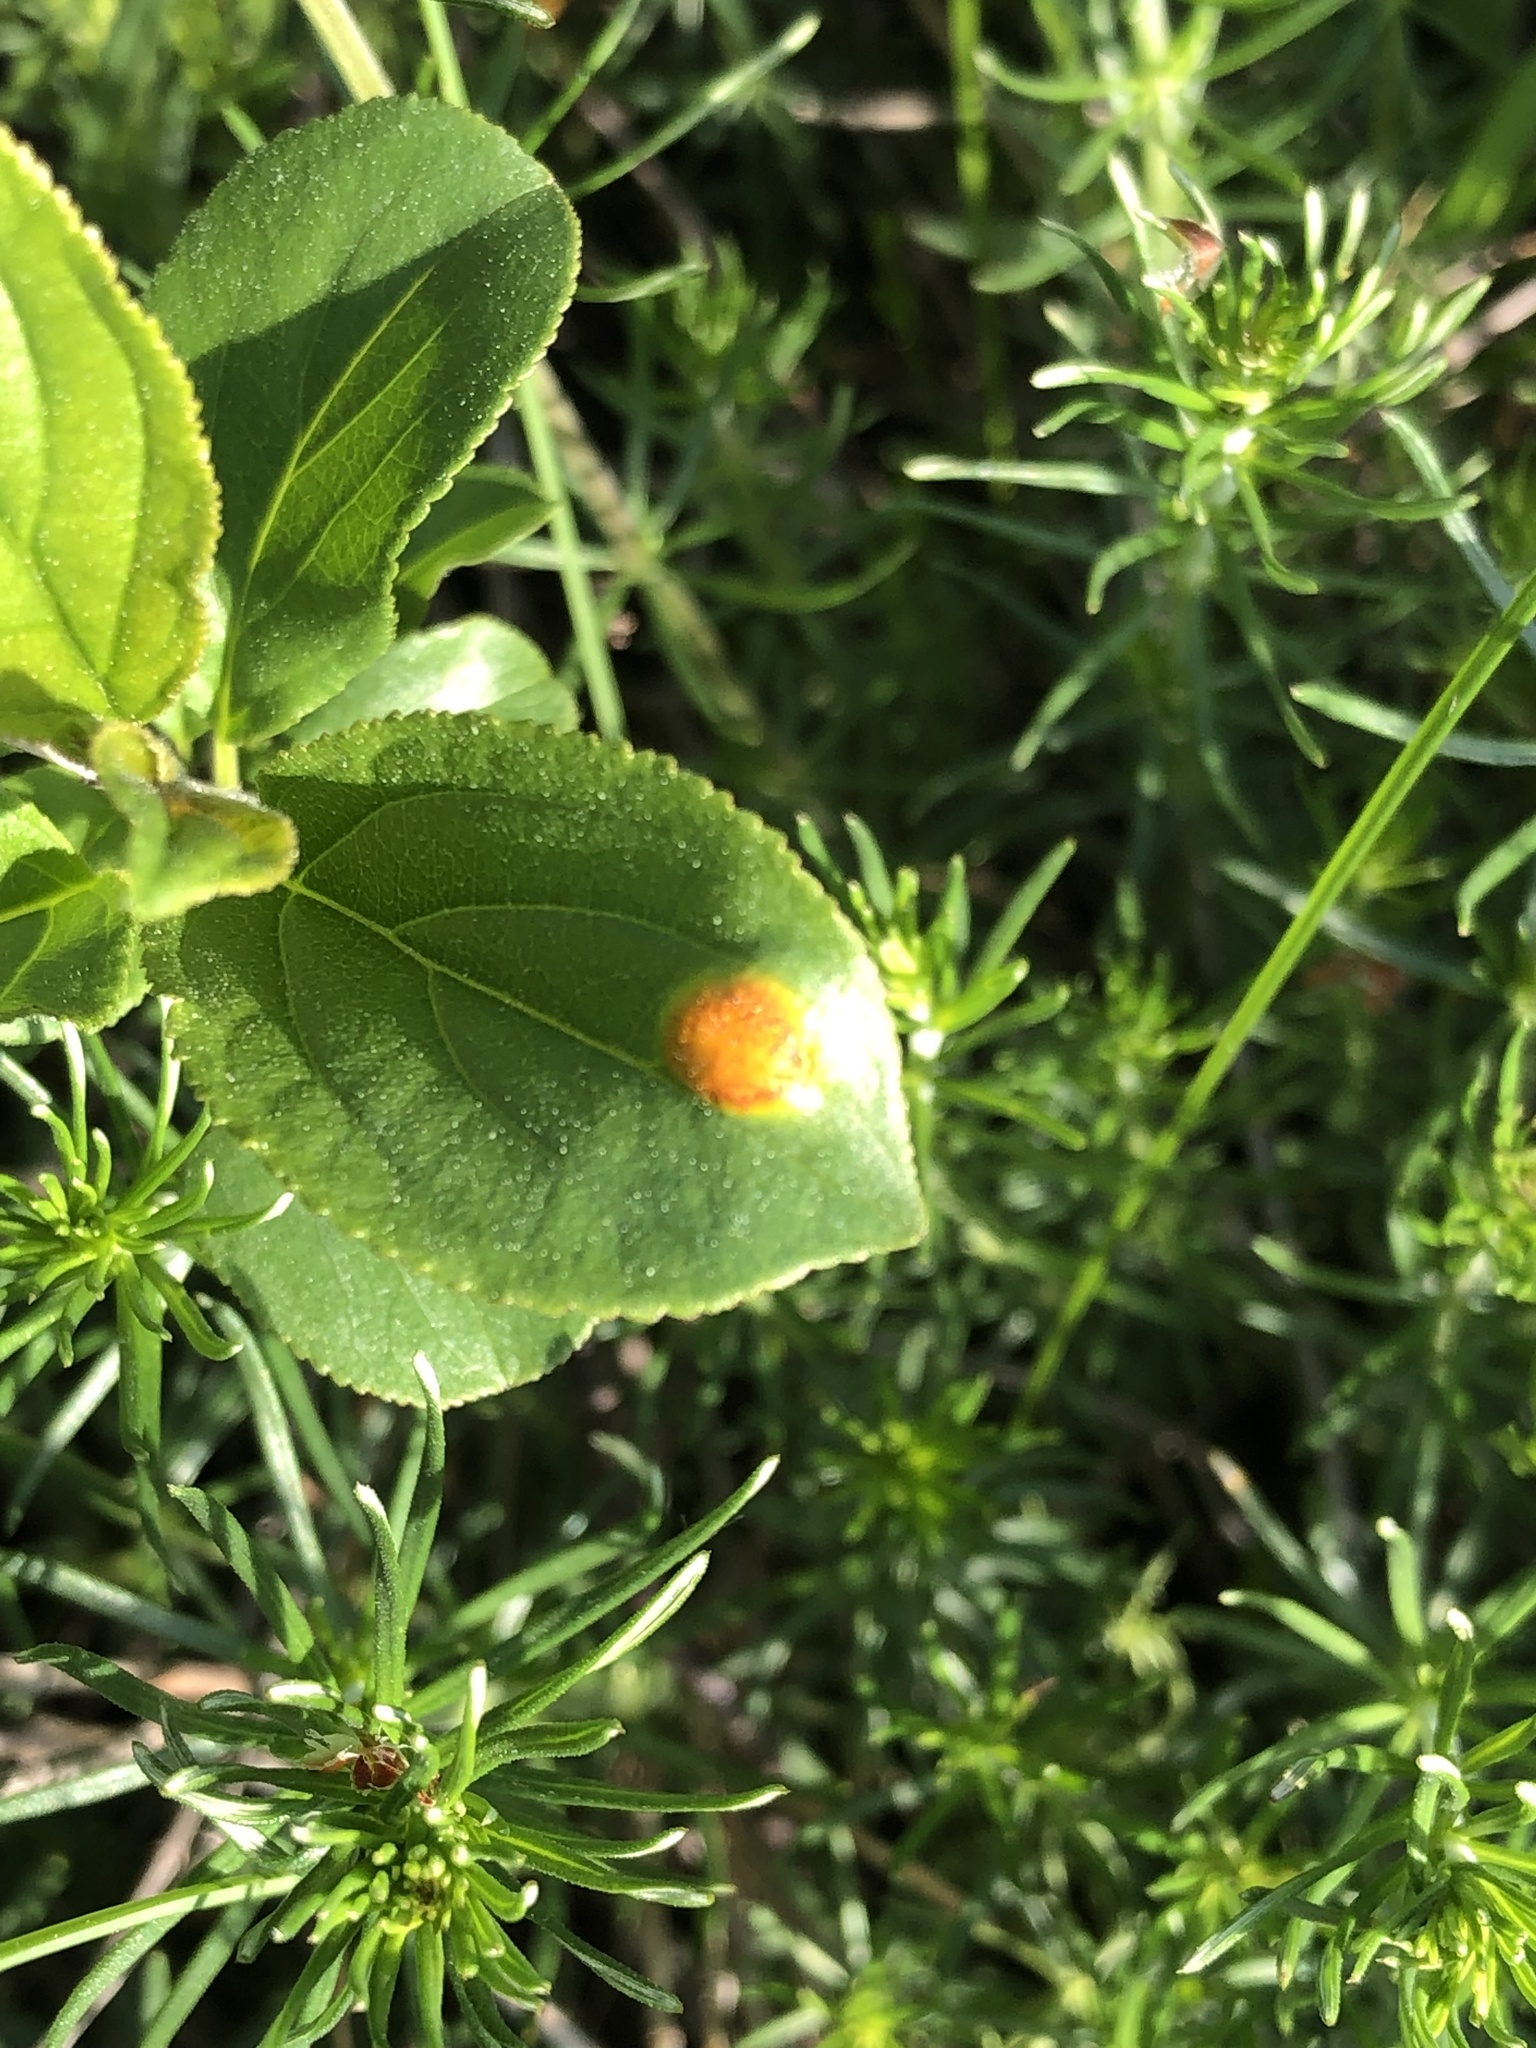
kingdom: Fungi
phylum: Basidiomycota
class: Pucciniomycetes
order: Pucciniales
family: Pucciniaceae
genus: Puccinia
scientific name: Puccinia coronata
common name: Crown rust
